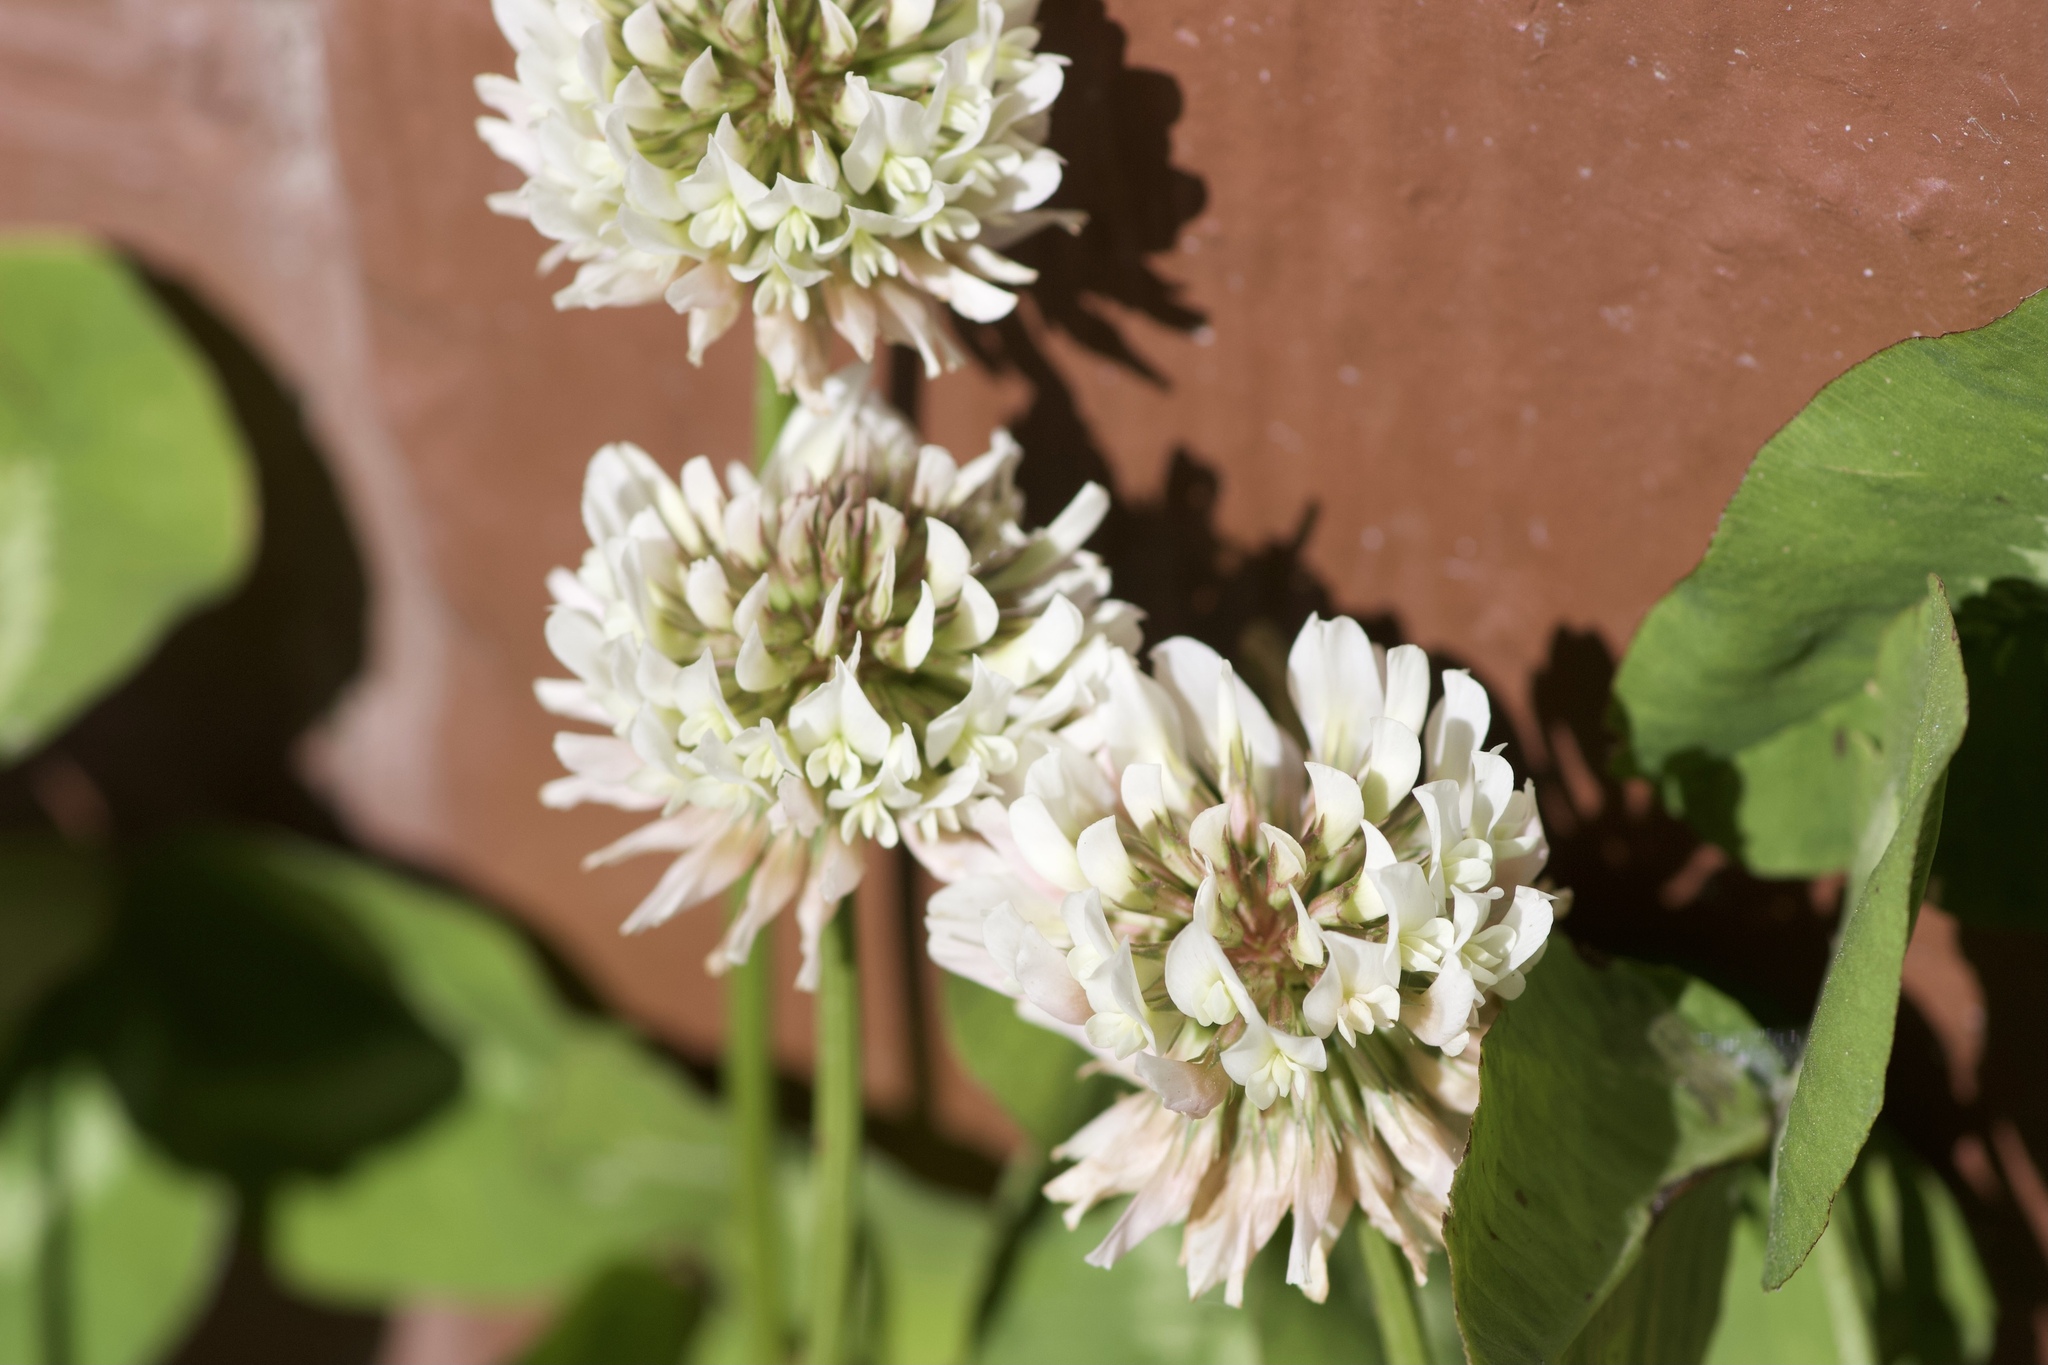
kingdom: Plantae
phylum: Tracheophyta
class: Magnoliopsida
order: Fabales
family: Fabaceae
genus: Trifolium
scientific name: Trifolium repens
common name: White clover
